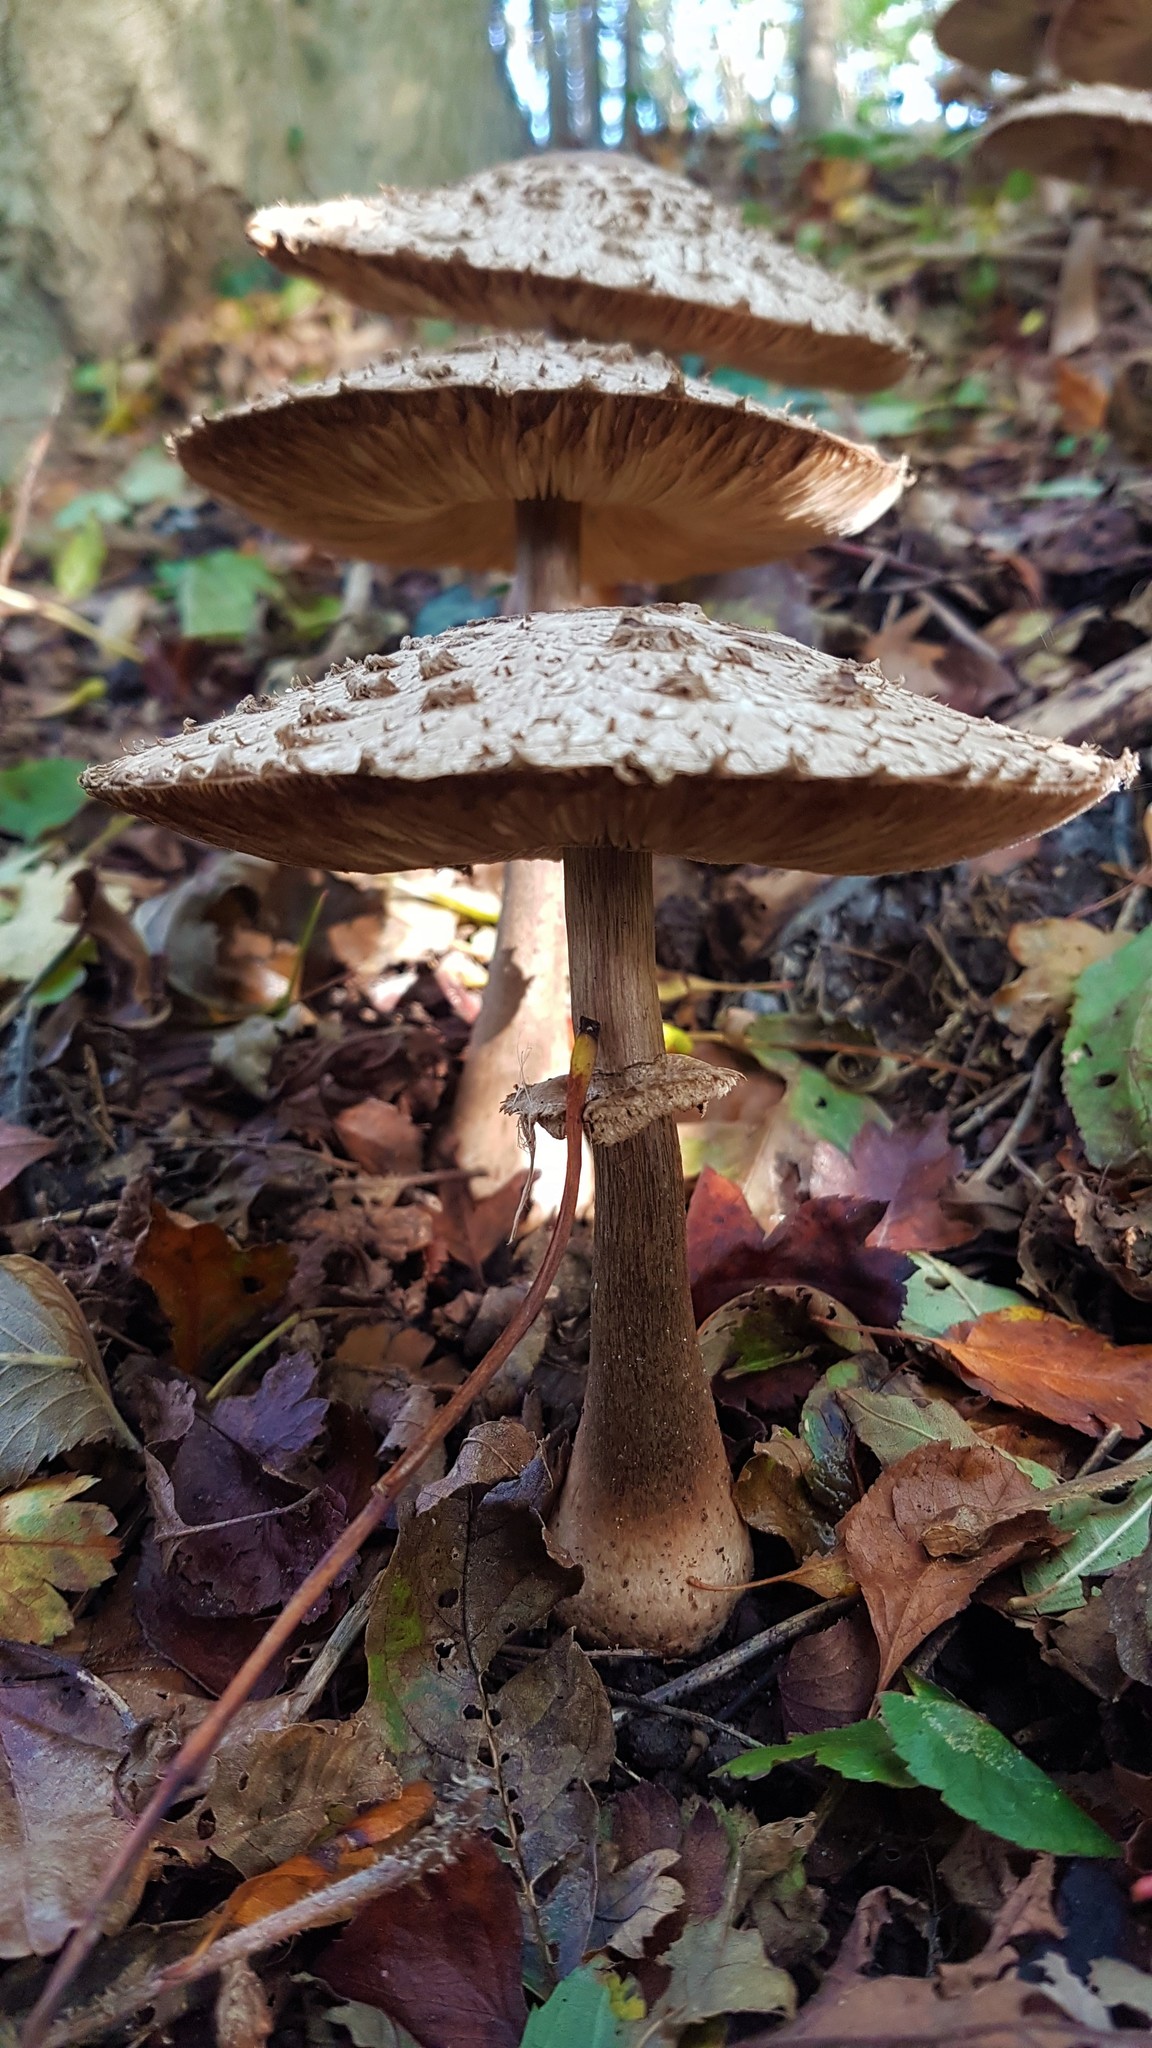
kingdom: Fungi
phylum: Basidiomycota
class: Agaricomycetes
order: Agaricales
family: Agaricaceae
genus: Chlorophyllum
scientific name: Chlorophyllum olivieri
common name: Conifer parasol
